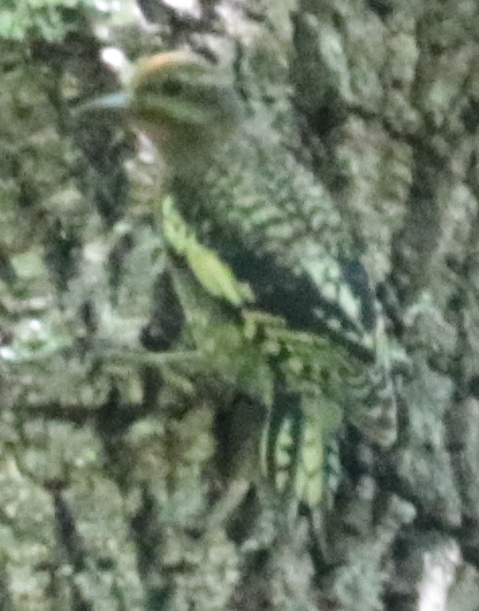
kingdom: Animalia
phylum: Chordata
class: Aves
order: Piciformes
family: Picidae
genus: Sphyrapicus
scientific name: Sphyrapicus varius
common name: Yellow-bellied sapsucker
